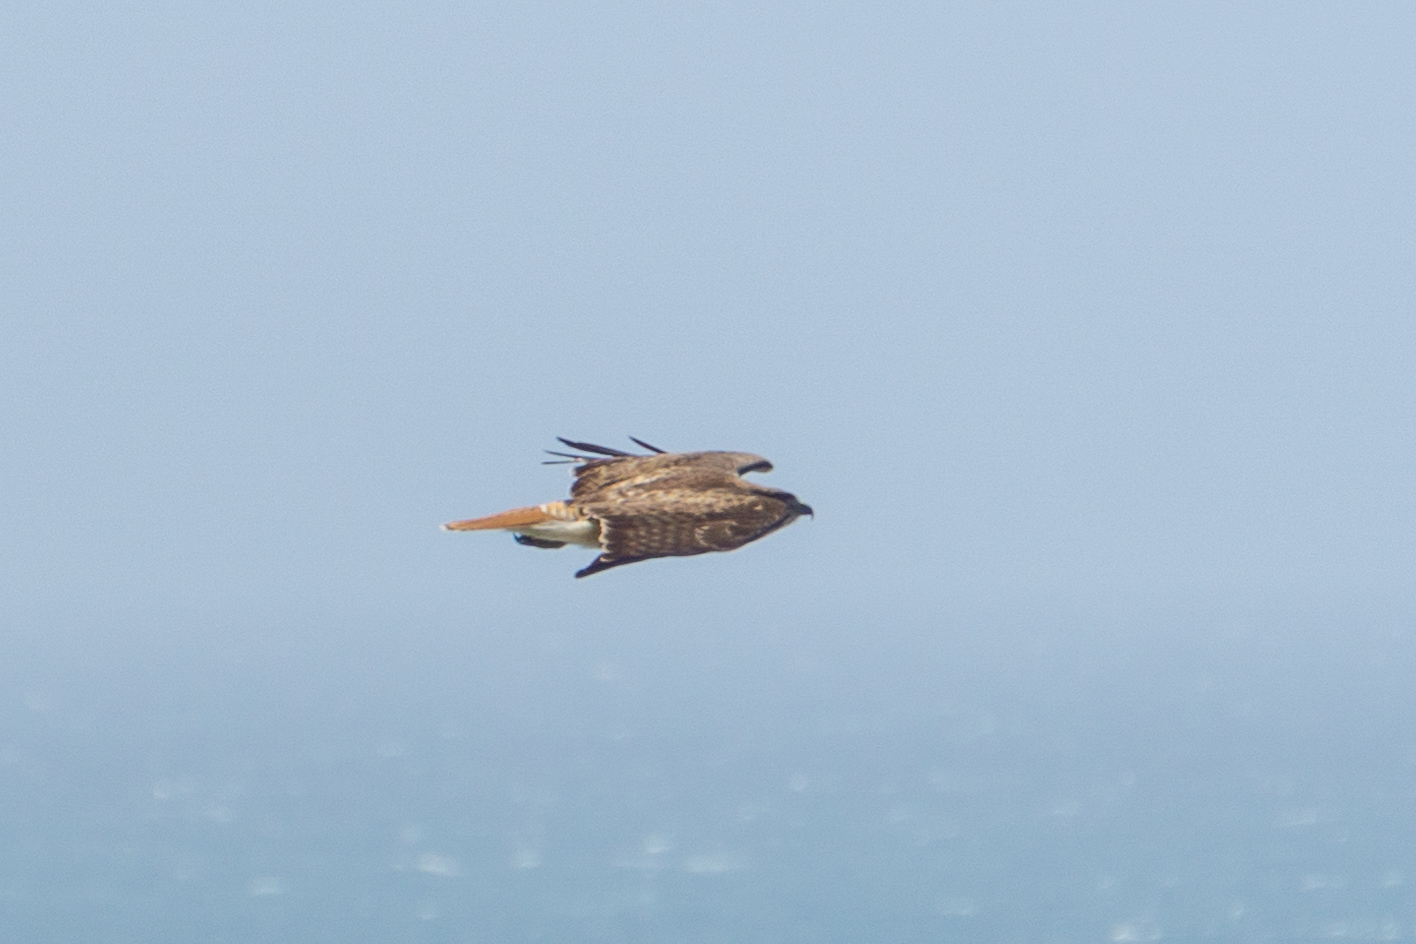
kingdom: Animalia
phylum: Chordata
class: Aves
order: Accipitriformes
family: Accipitridae
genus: Buteo
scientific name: Buteo jamaicensis
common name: Red-tailed hawk
